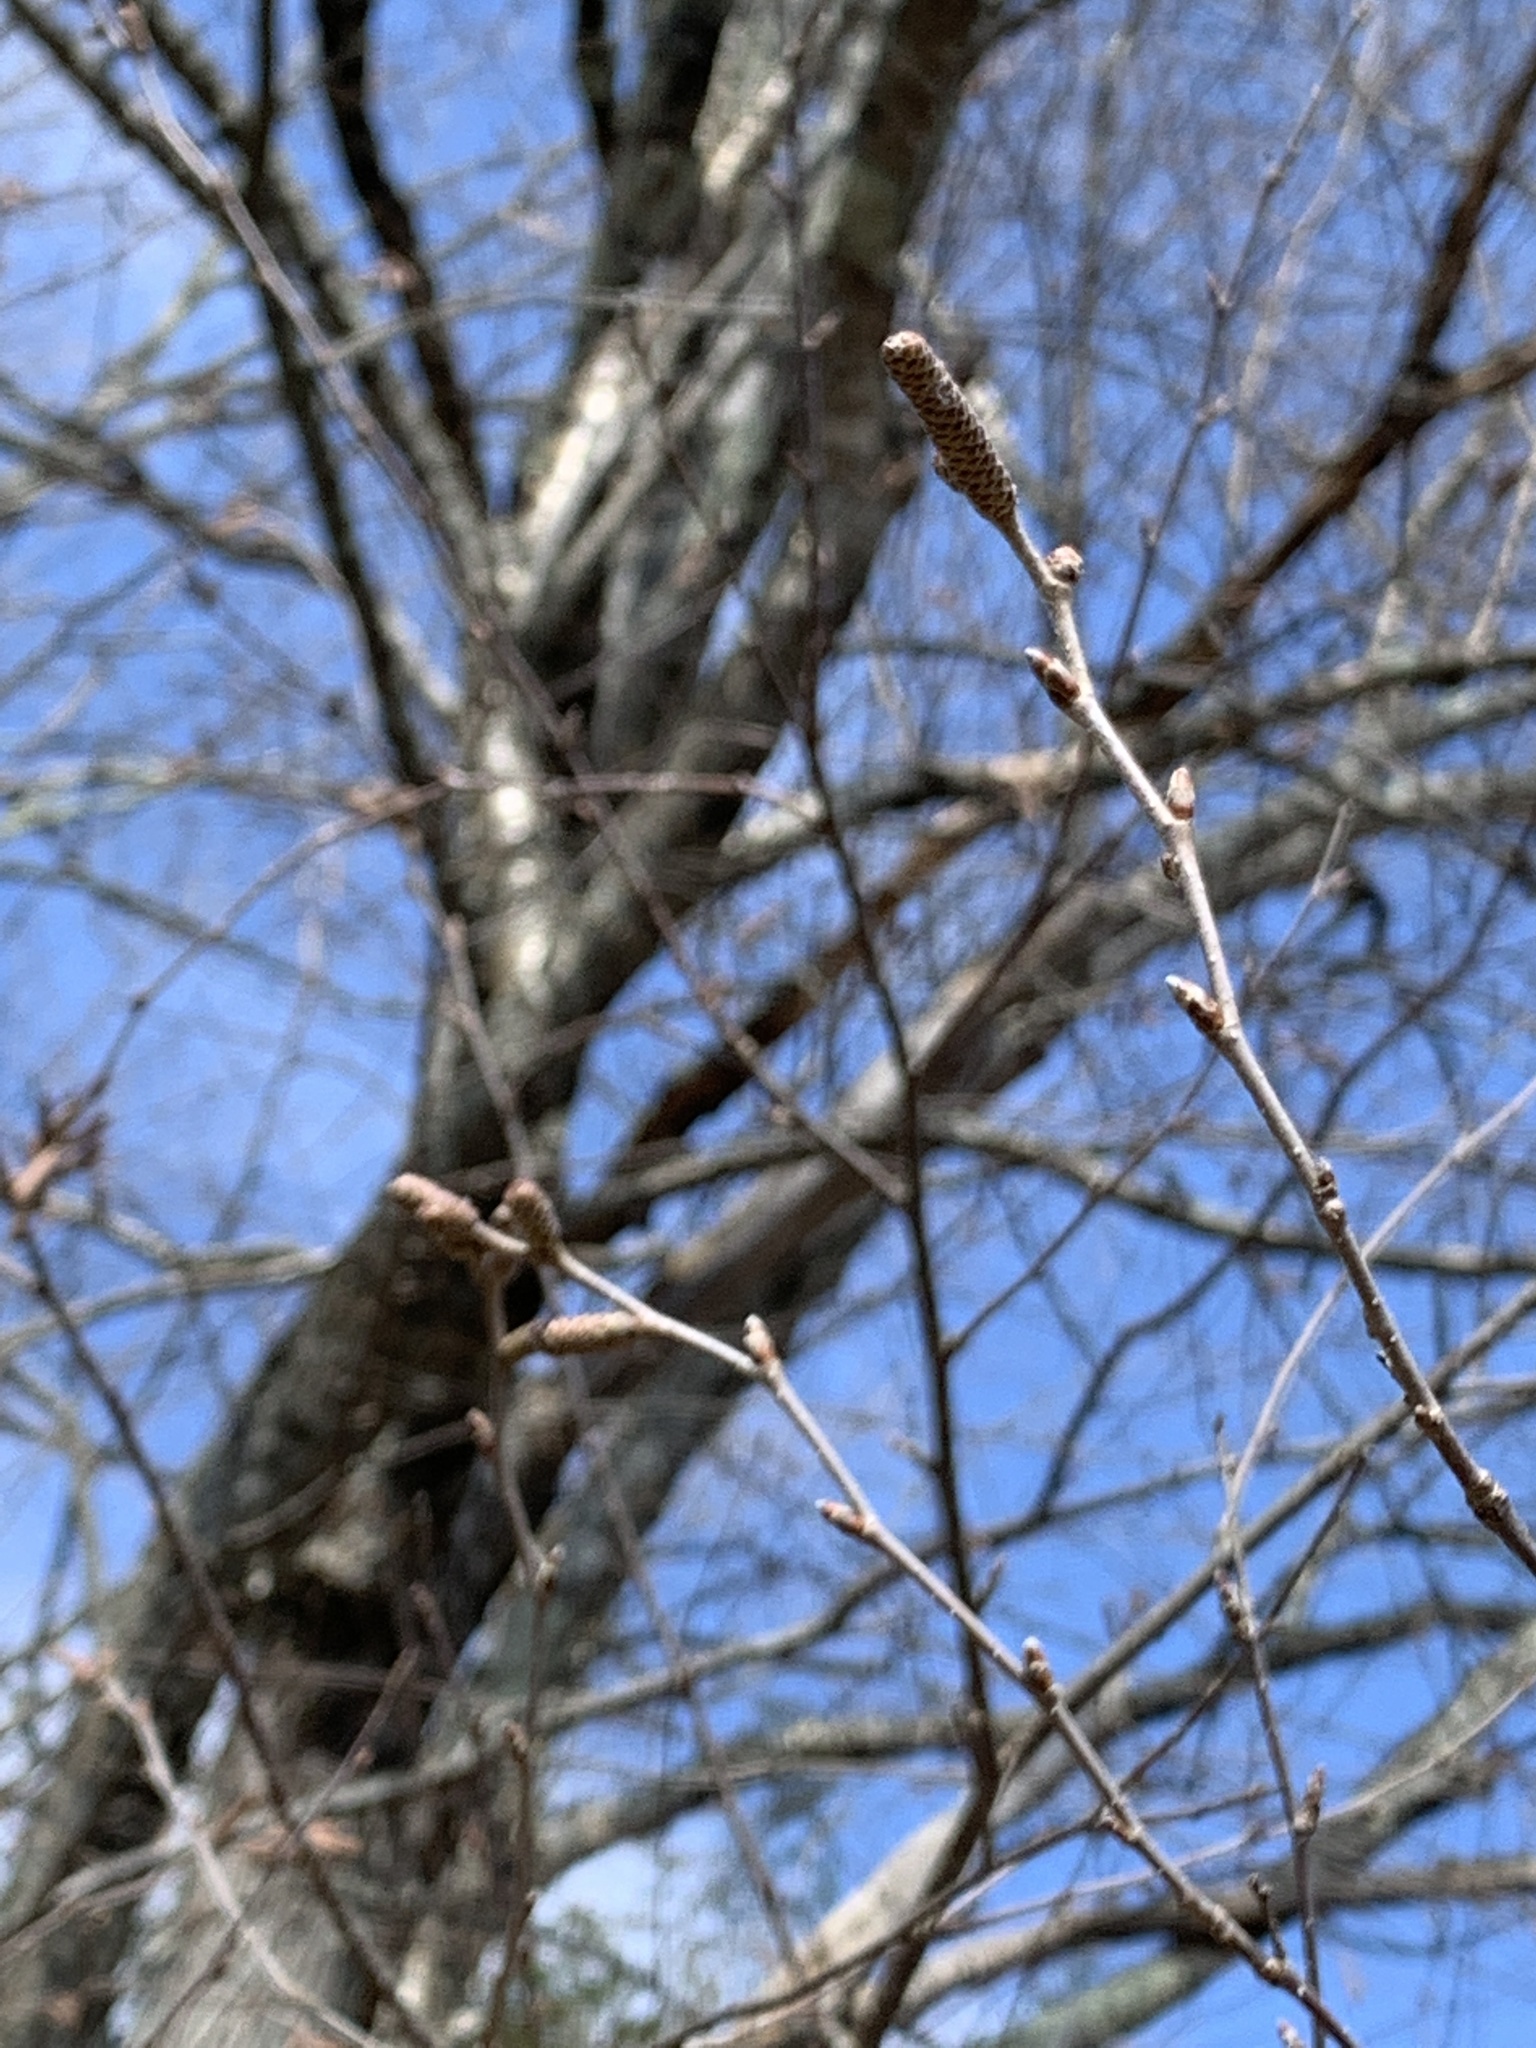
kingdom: Plantae
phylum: Tracheophyta
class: Magnoliopsida
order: Fagales
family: Betulaceae
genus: Betula
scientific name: Betula alleghaniensis
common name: Yellow birch
